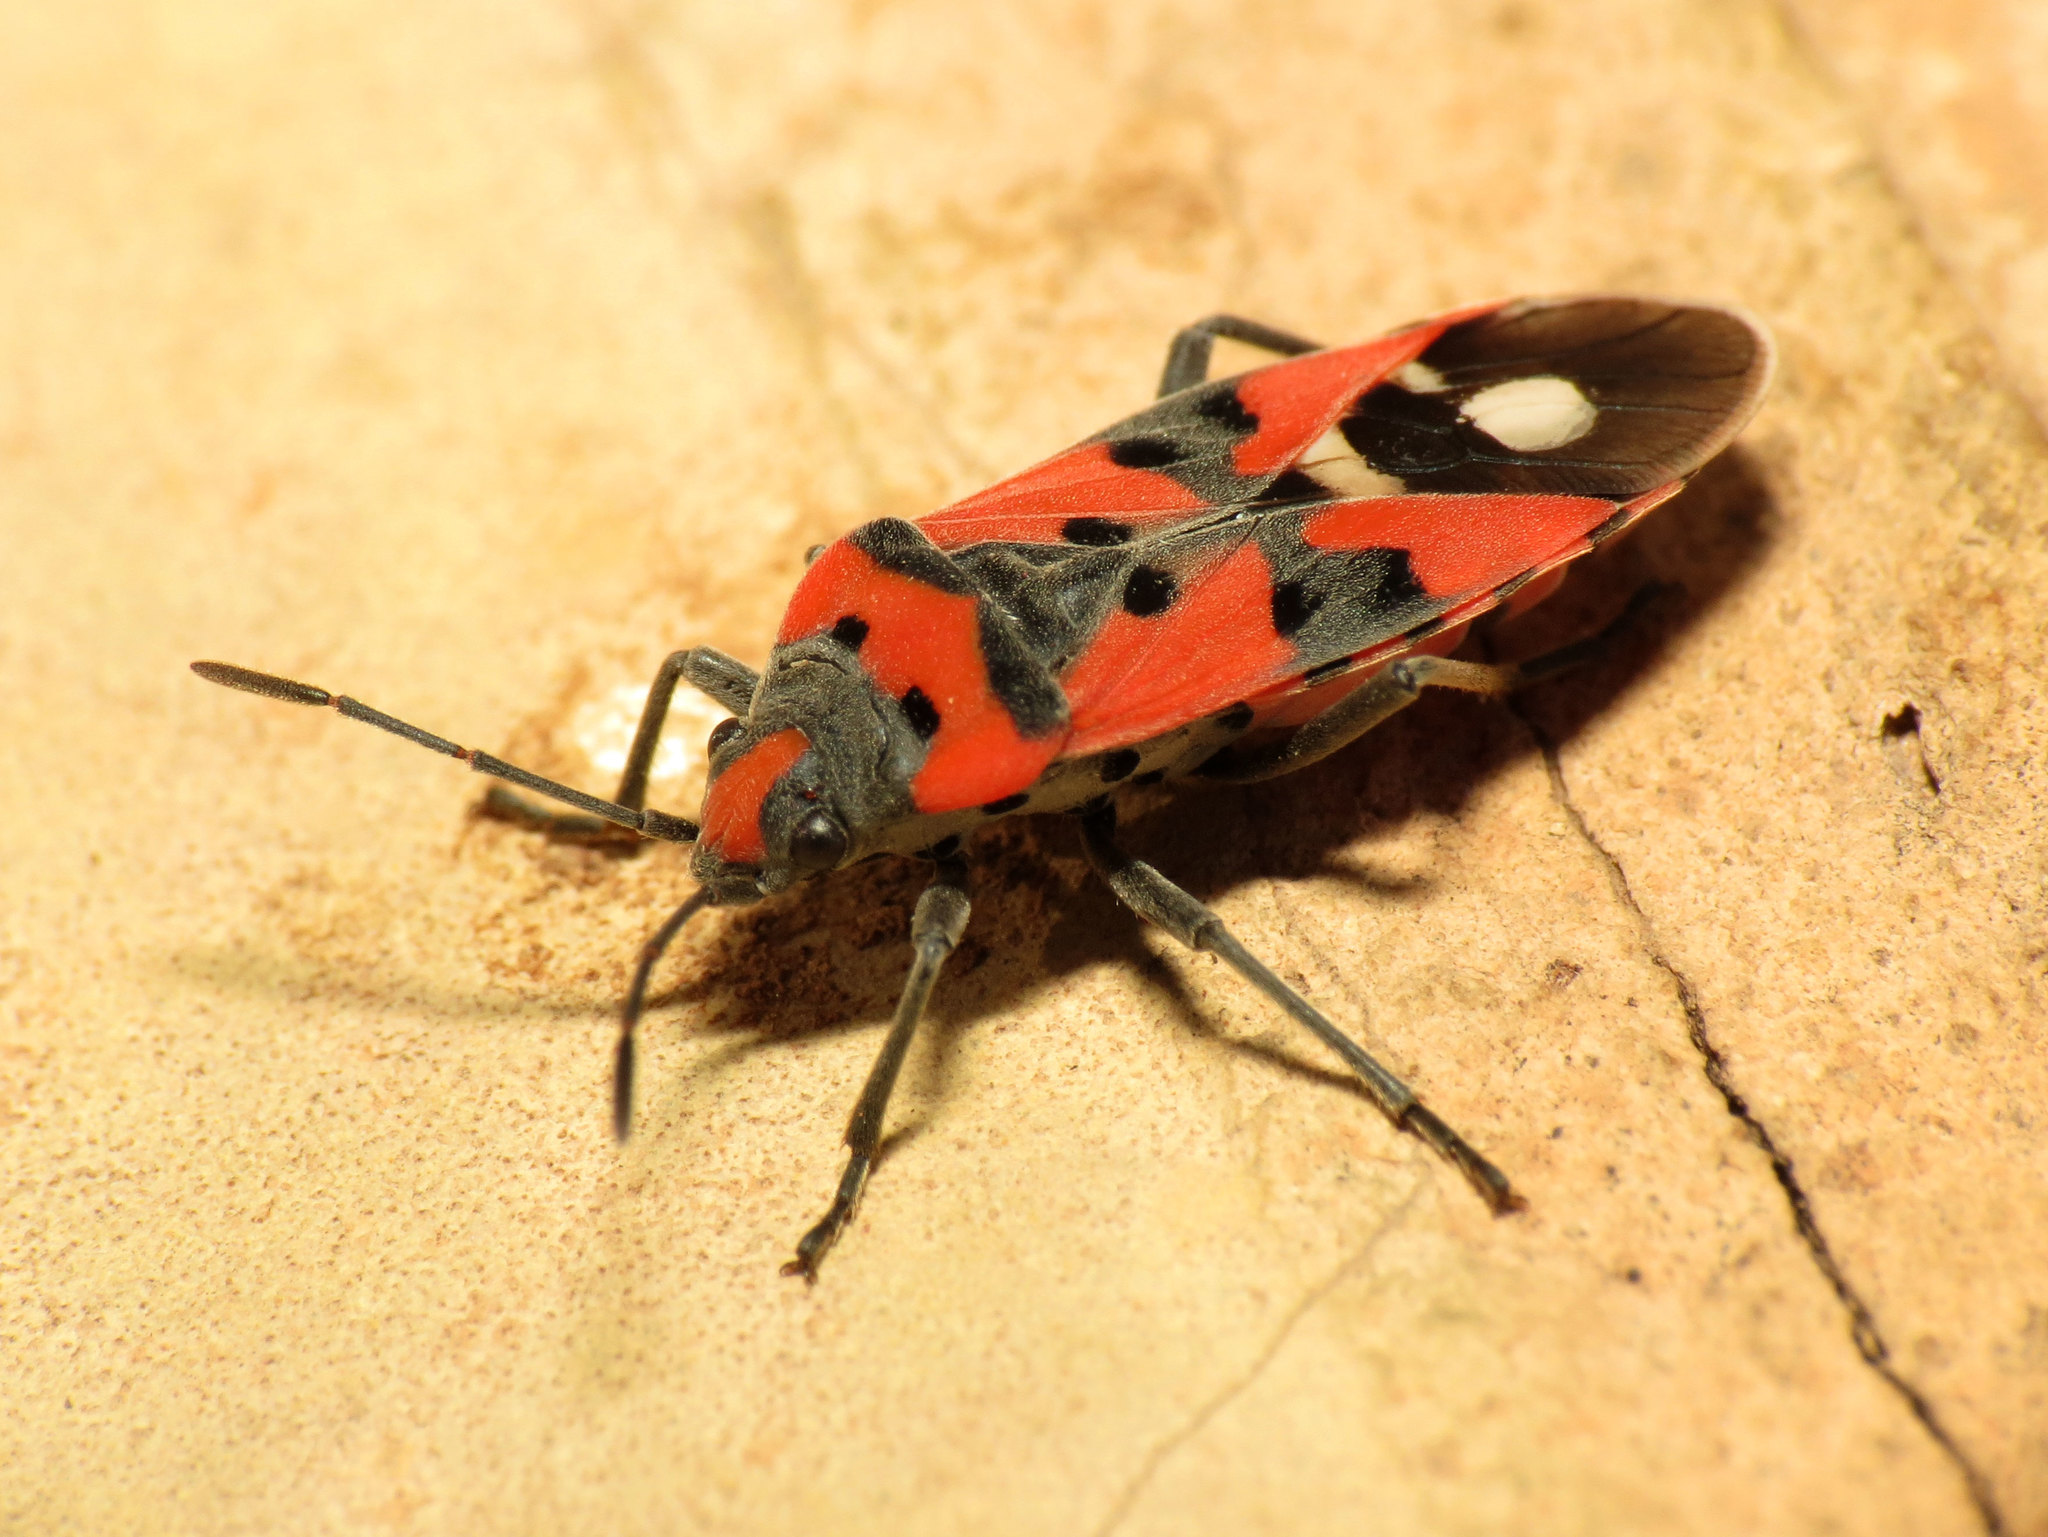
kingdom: Animalia
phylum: Arthropoda
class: Insecta
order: Hemiptera
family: Lygaeidae
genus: Lygaeus
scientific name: Lygaeus equestris
